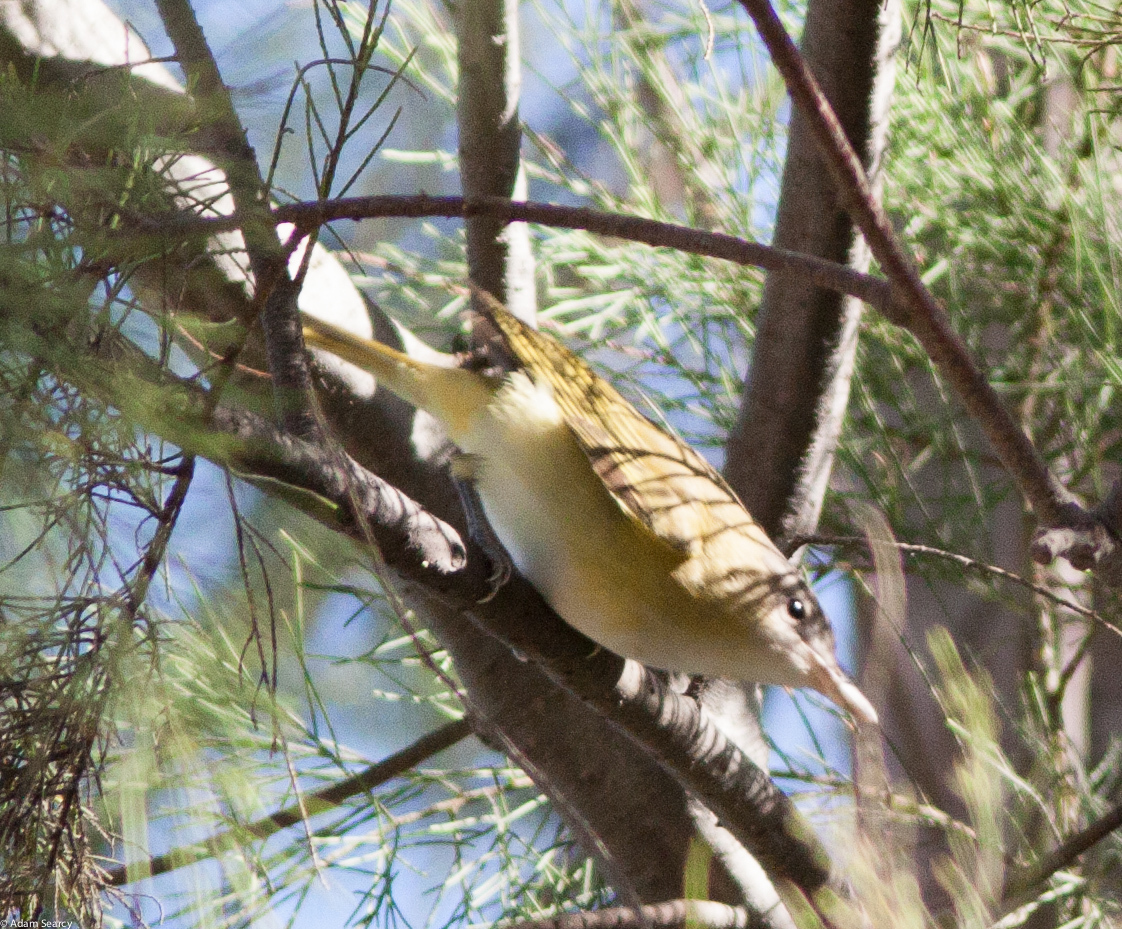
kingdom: Animalia
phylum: Chordata
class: Aves
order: Passeriformes
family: Vireonidae
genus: Vireo
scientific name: Vireo flavoviridis
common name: Yellow-green vireo
